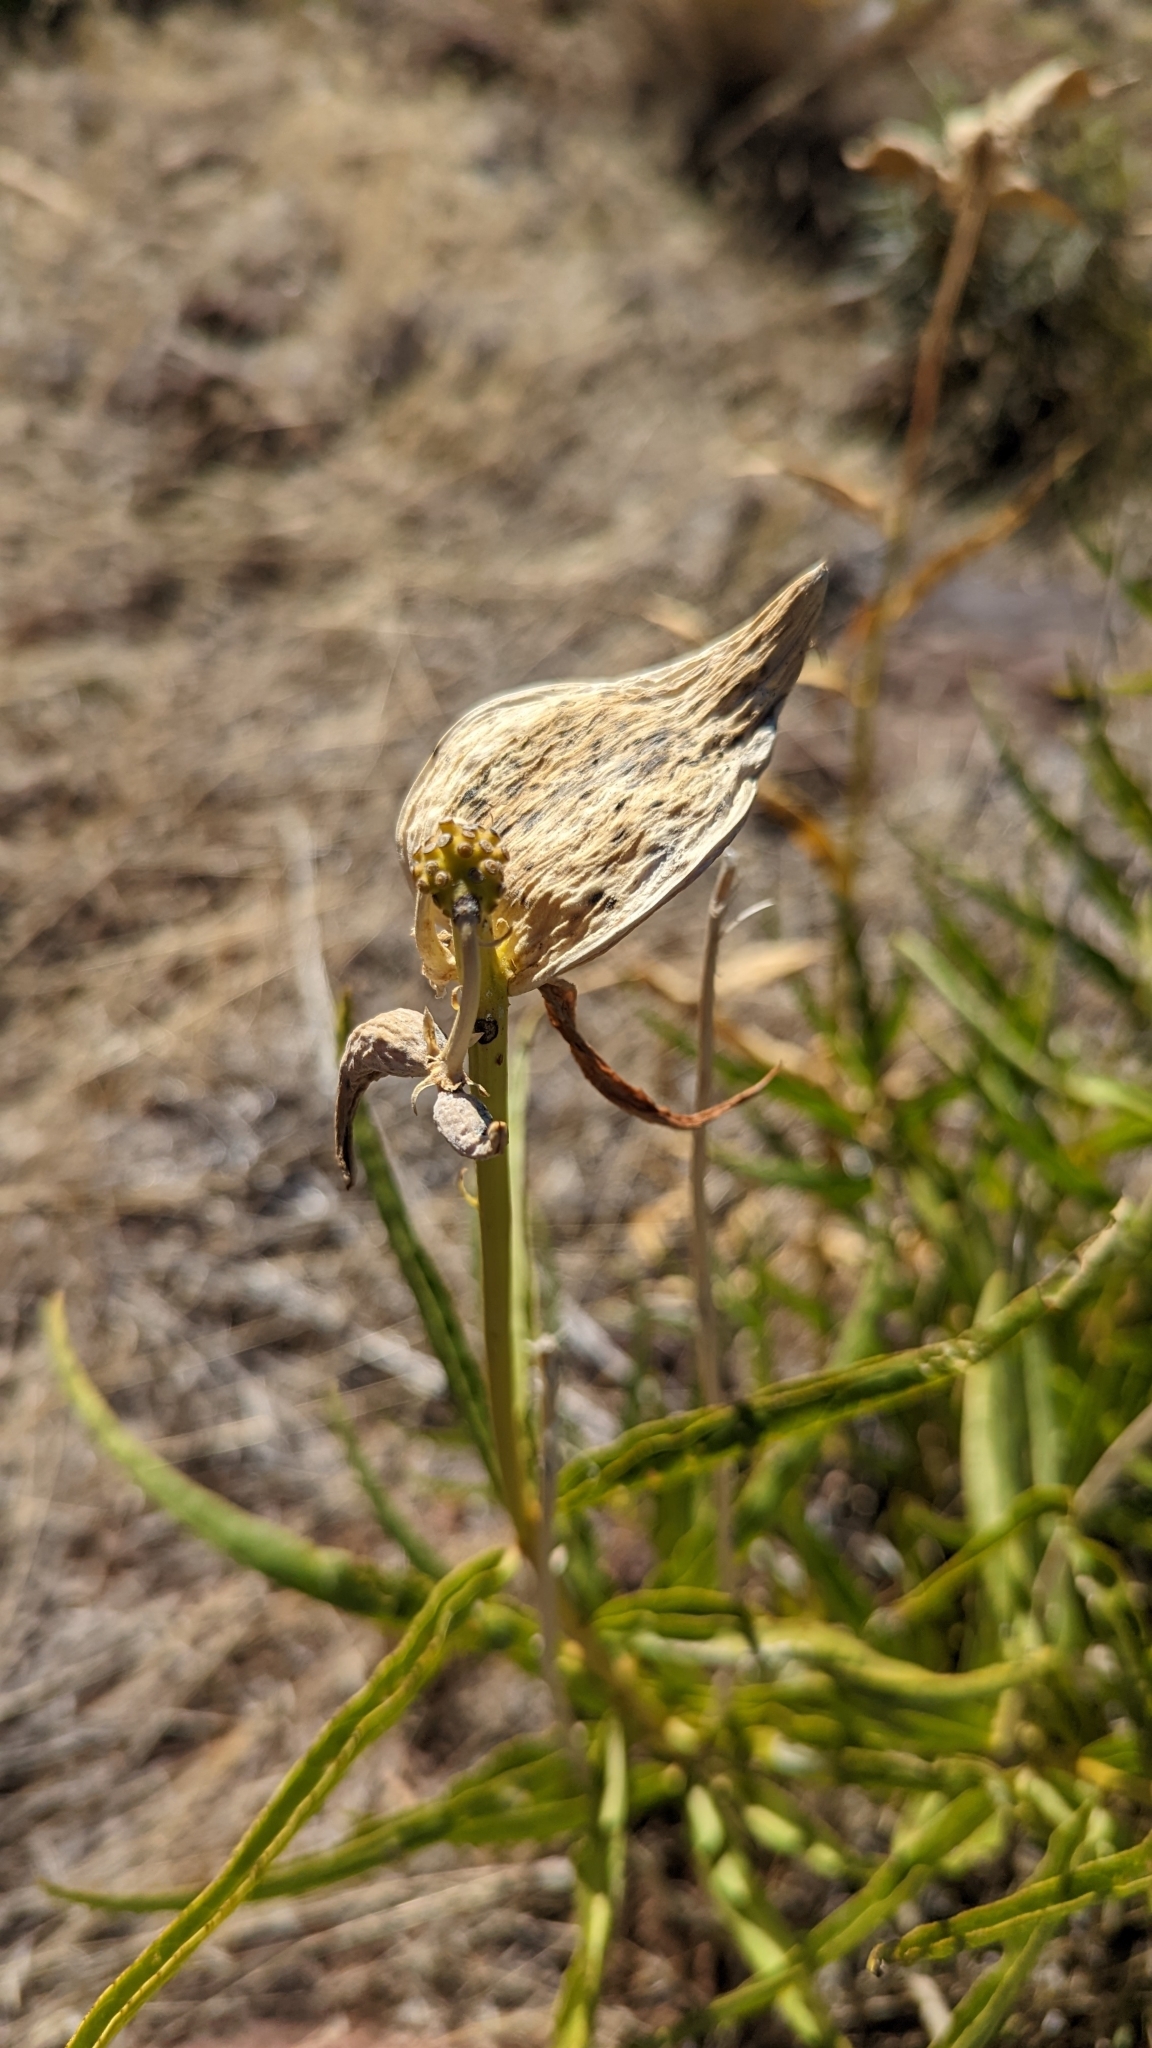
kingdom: Plantae
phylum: Tracheophyta
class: Magnoliopsida
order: Gentianales
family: Apocynaceae
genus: Asclepias
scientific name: Asclepias asperula
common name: Antelope horns
